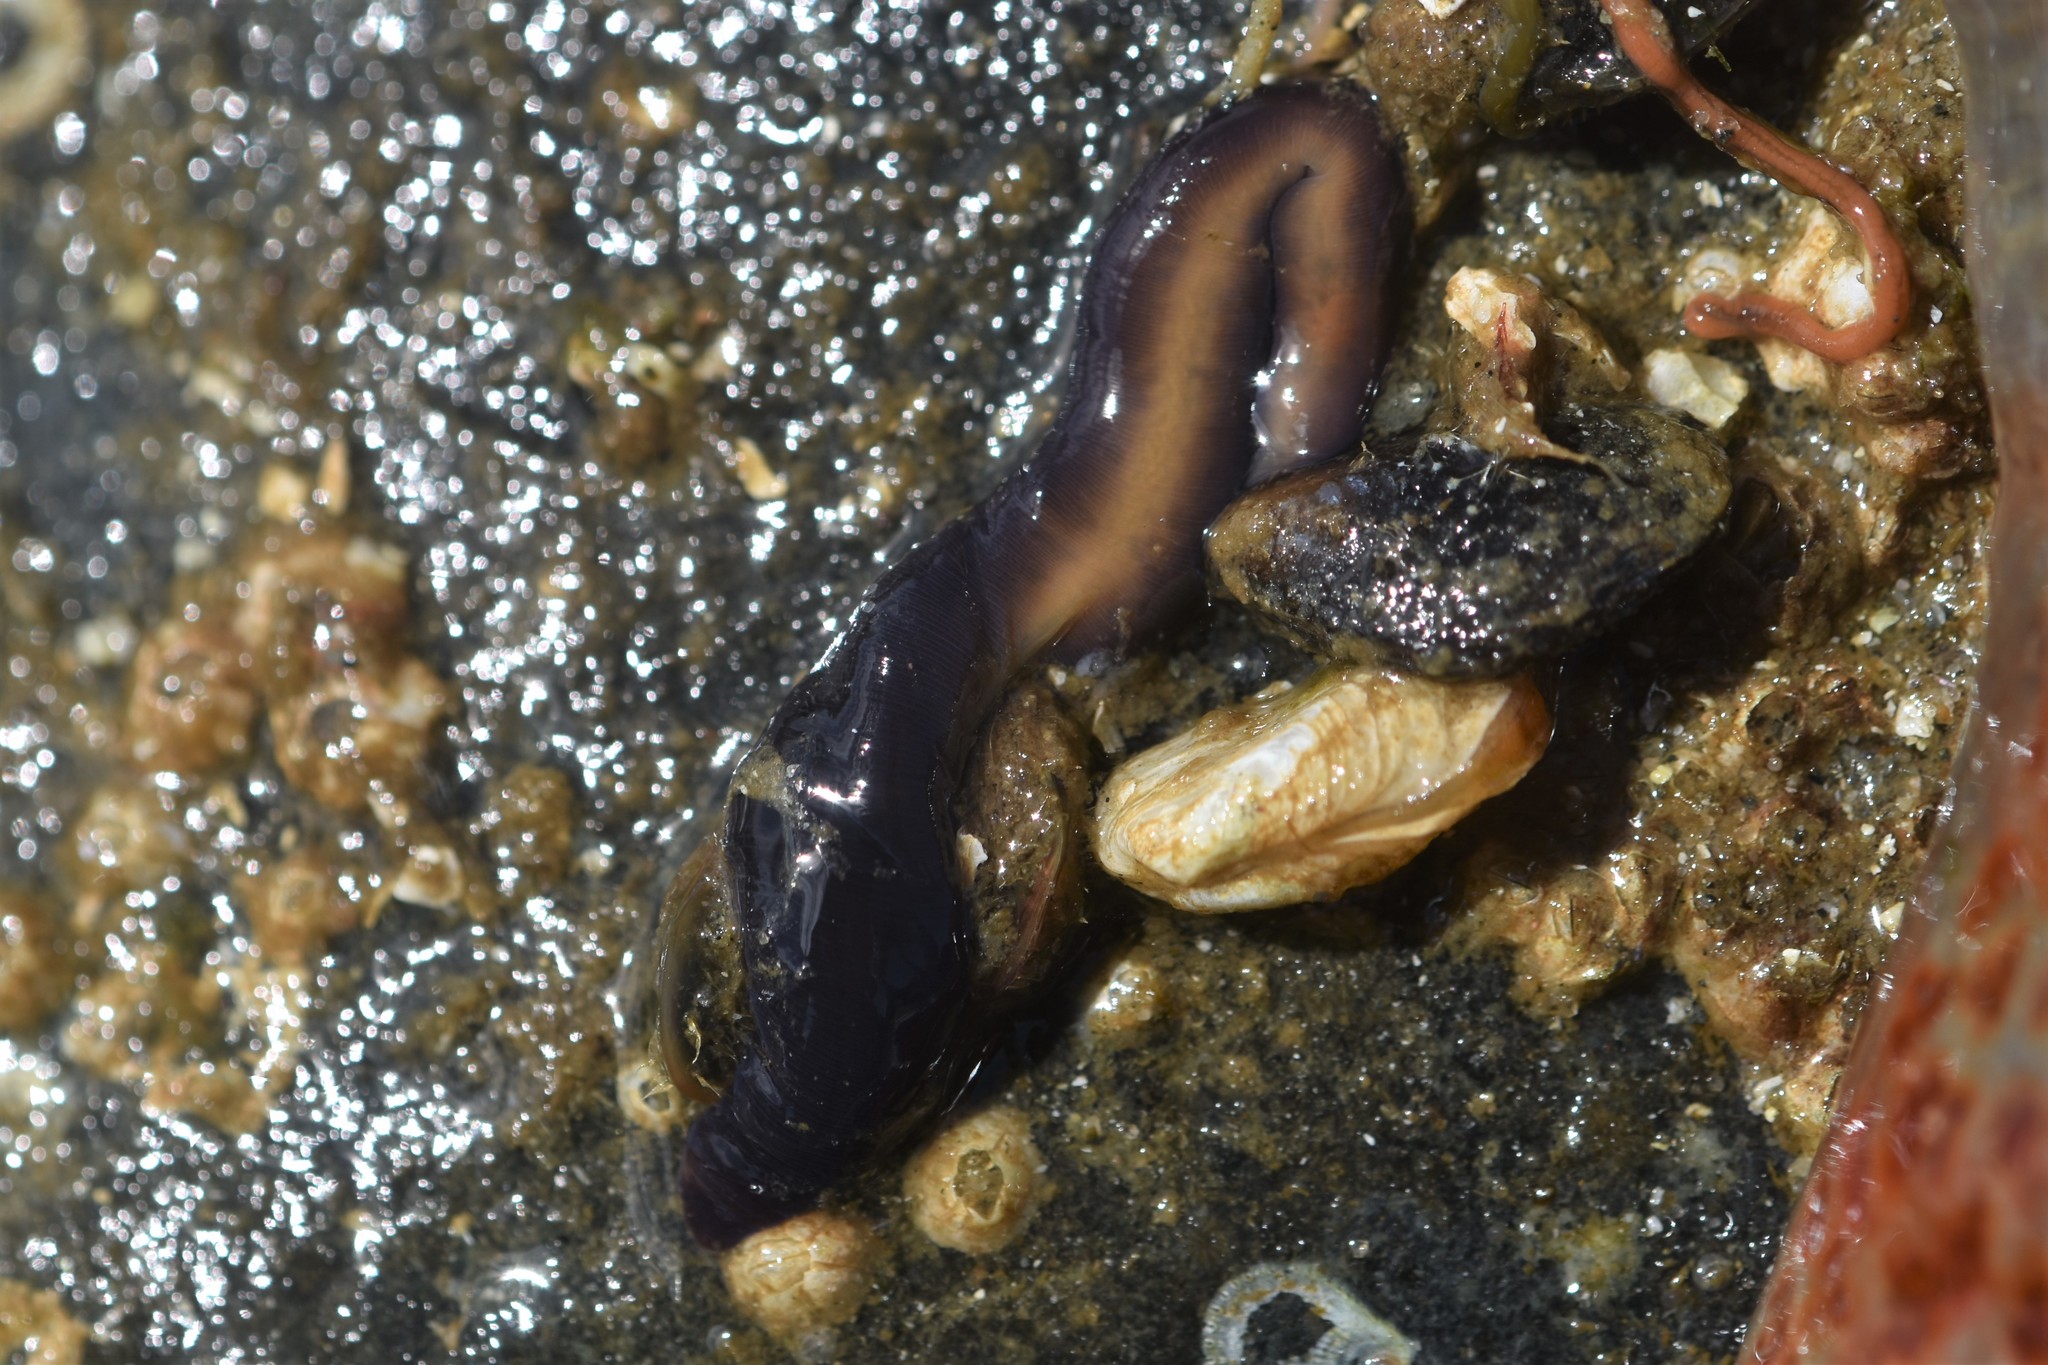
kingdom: Animalia
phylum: Nemertea
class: Hoplonemertea
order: Monostilifera
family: Neesiidae
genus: Paranemertes
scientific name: Paranemertes peregrina
